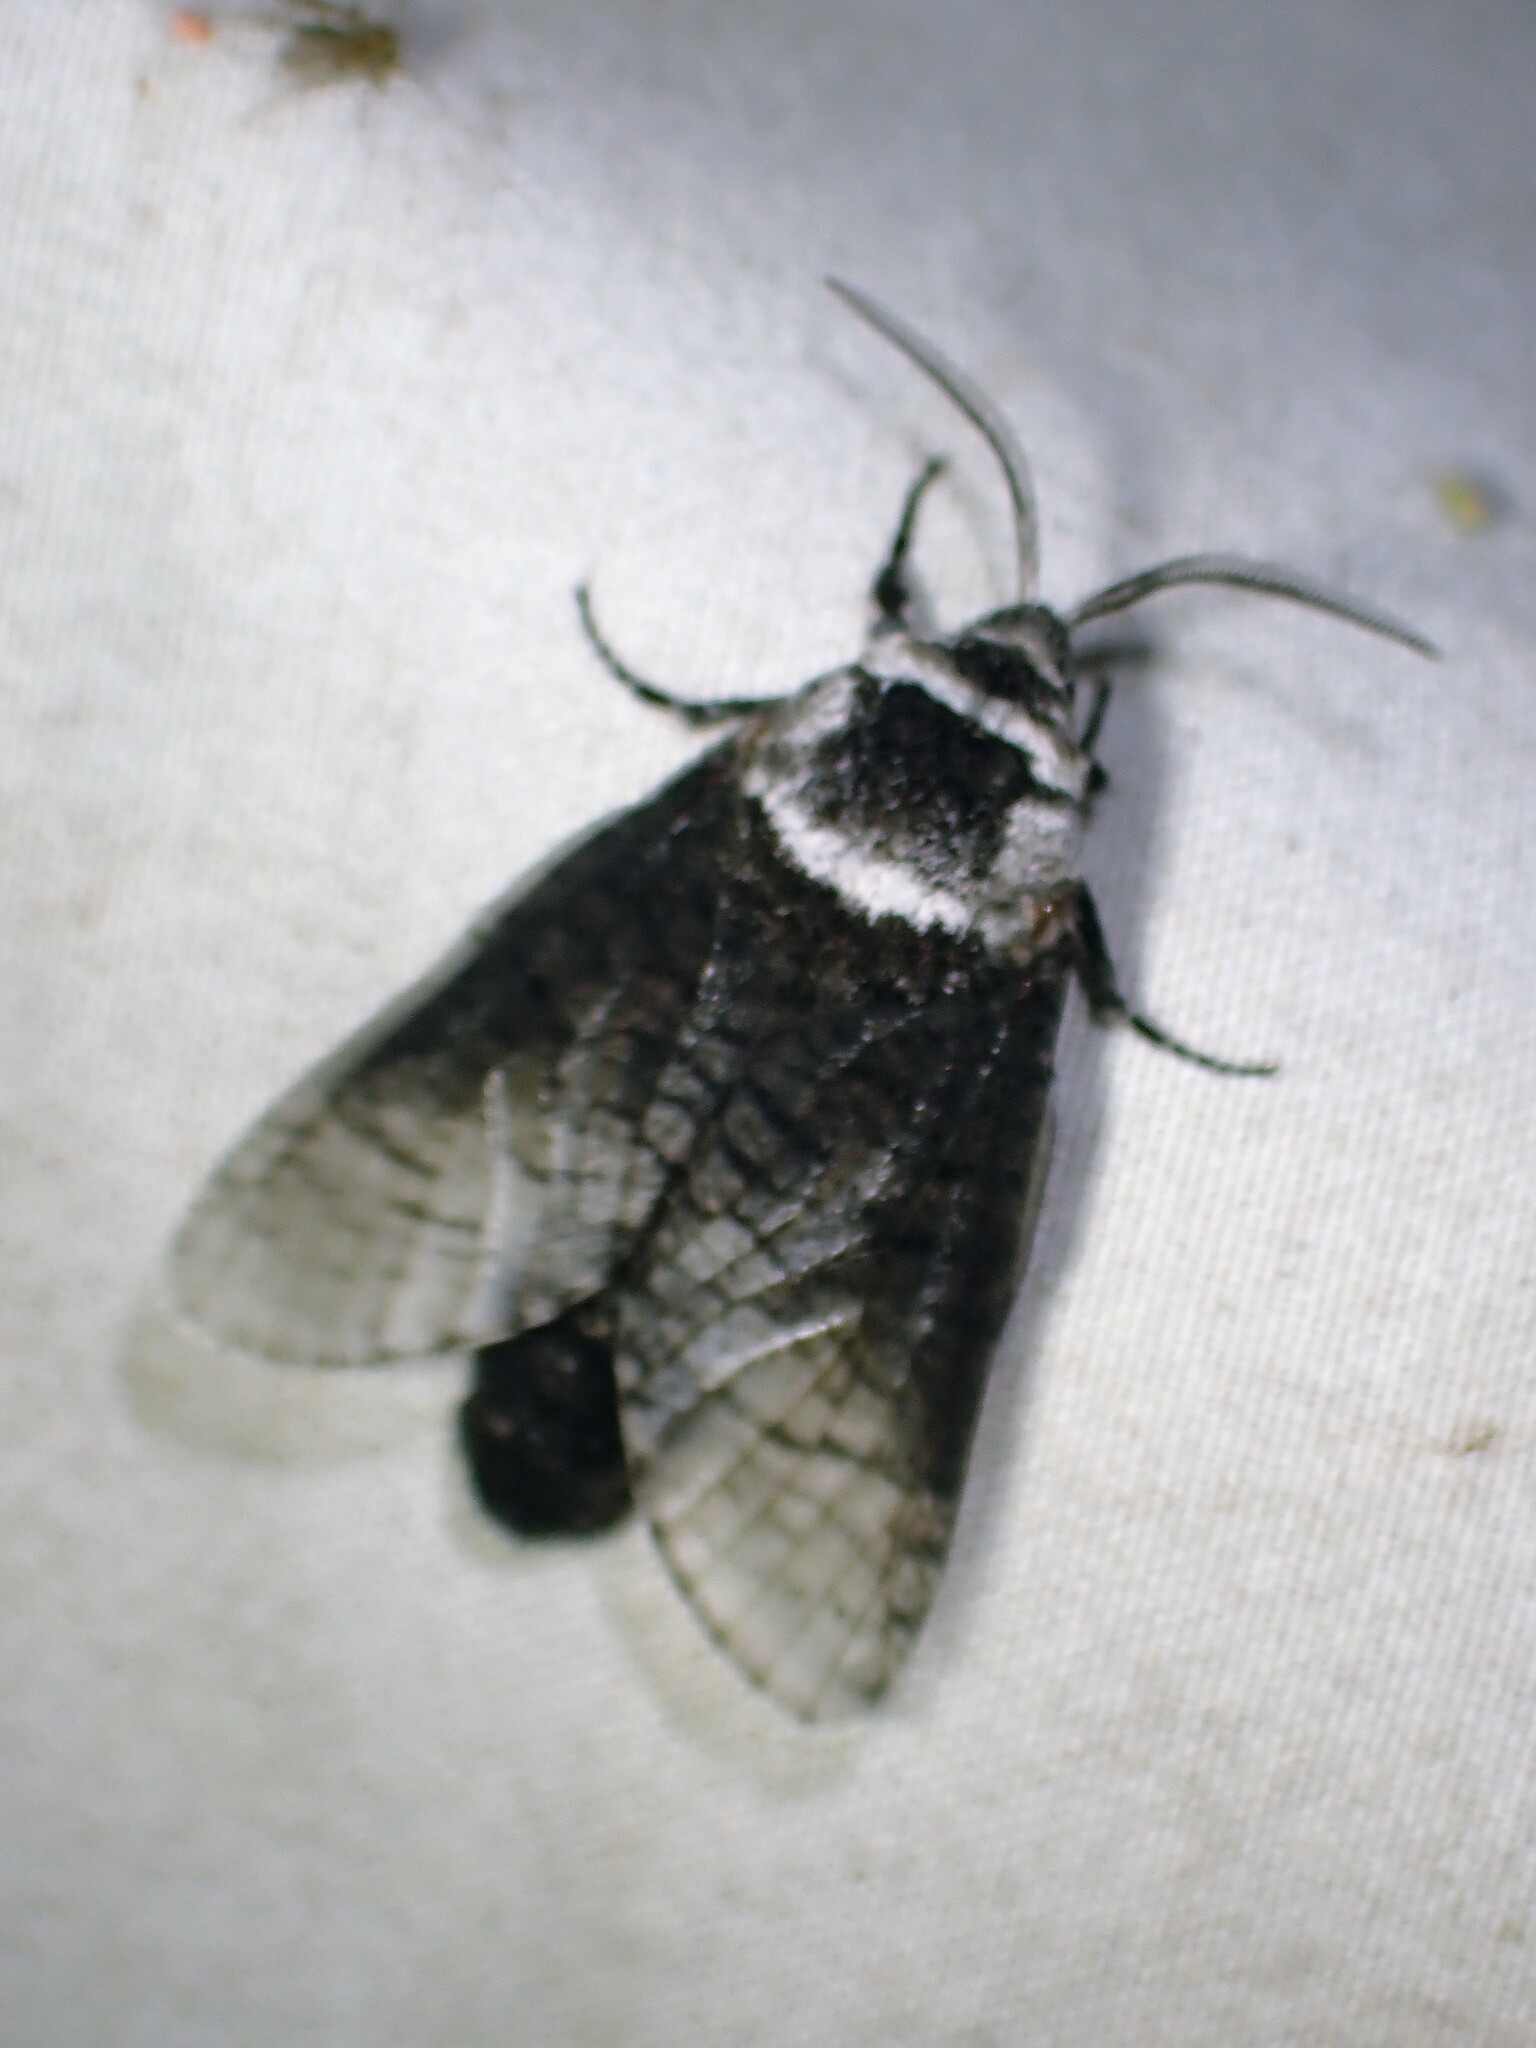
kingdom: Animalia
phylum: Arthropoda
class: Insecta
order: Lepidoptera
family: Cossidae
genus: Acossus
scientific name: Acossus centerensis
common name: Poplar carpenterworm moth
